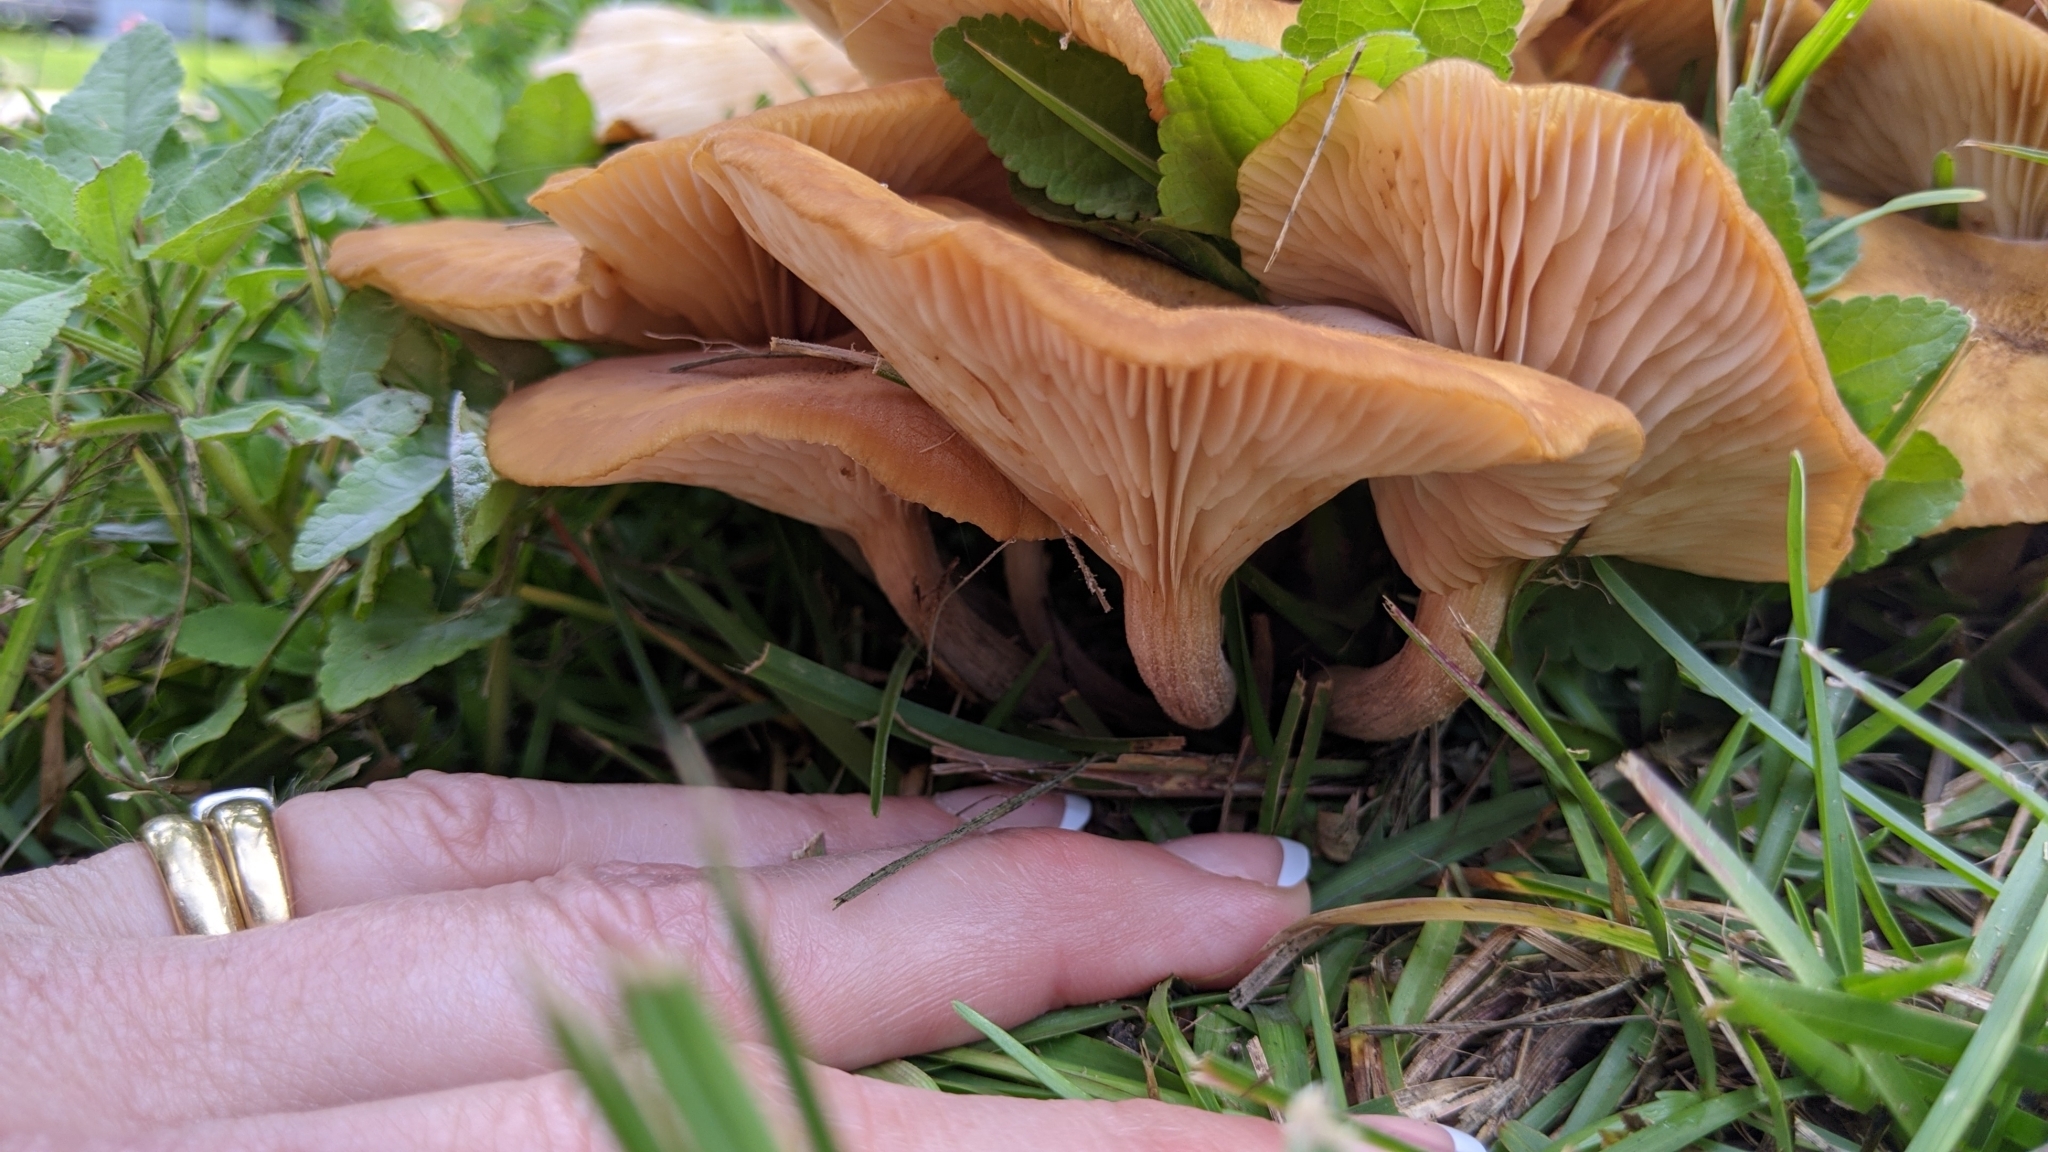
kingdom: Fungi
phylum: Basidiomycota
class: Agaricomycetes
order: Agaricales
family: Physalacriaceae
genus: Desarmillaria
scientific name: Desarmillaria caespitosa
